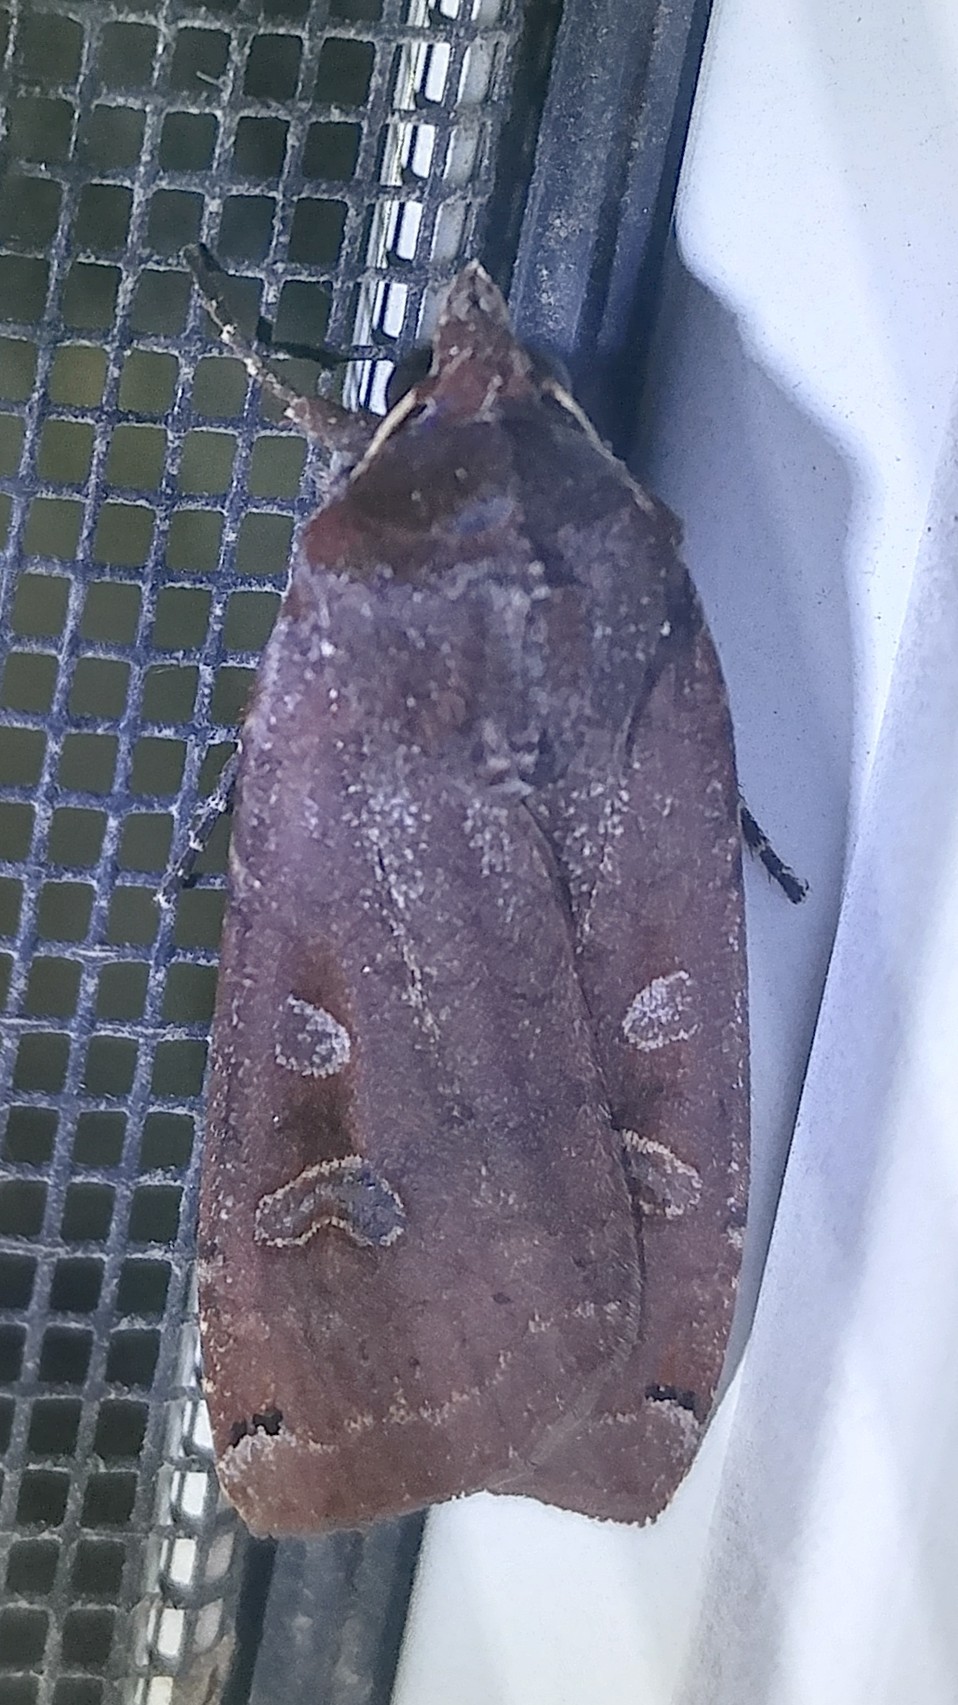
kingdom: Animalia
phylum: Arthropoda
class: Insecta
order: Lepidoptera
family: Noctuidae
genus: Noctua
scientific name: Noctua pronuba
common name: Large yellow underwing
